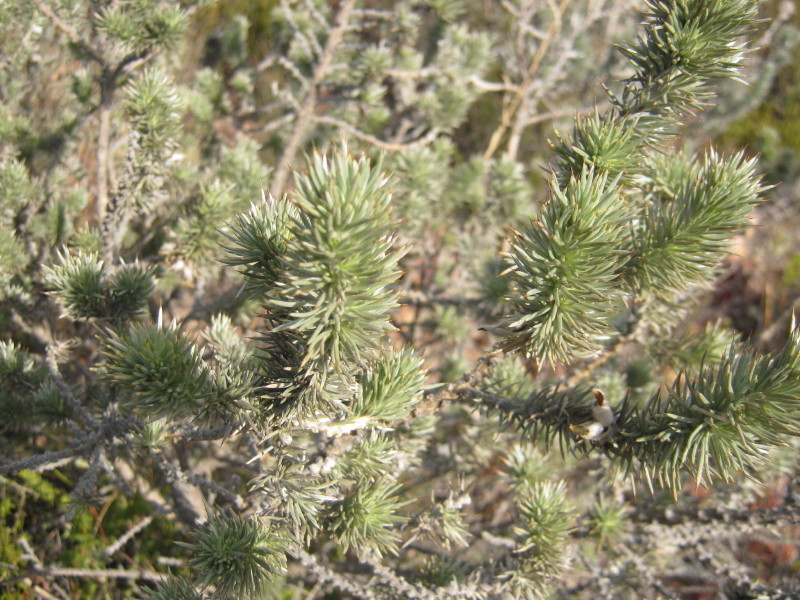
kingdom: Plantae
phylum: Tracheophyta
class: Magnoliopsida
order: Fabales
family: Fabaceae
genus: Aspalathus
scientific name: Aspalathus hystrix
